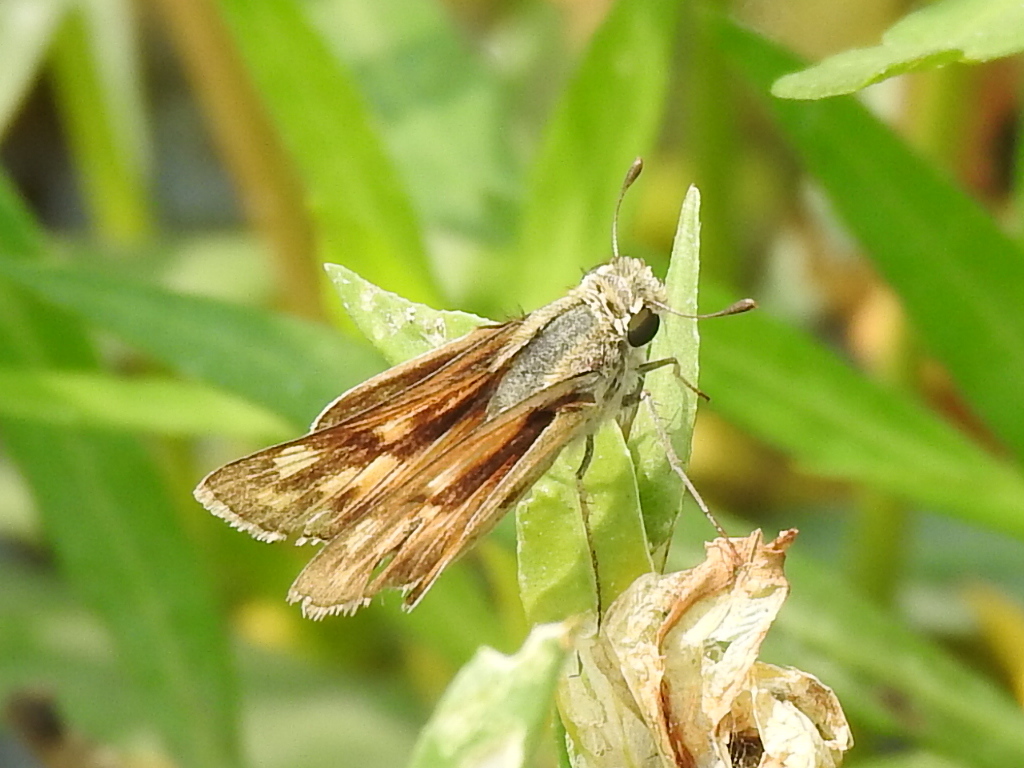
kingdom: Animalia
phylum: Arthropoda
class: Insecta
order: Lepidoptera
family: Hesperiidae
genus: Hylephila
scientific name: Hylephila phyleus
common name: Fiery skipper
